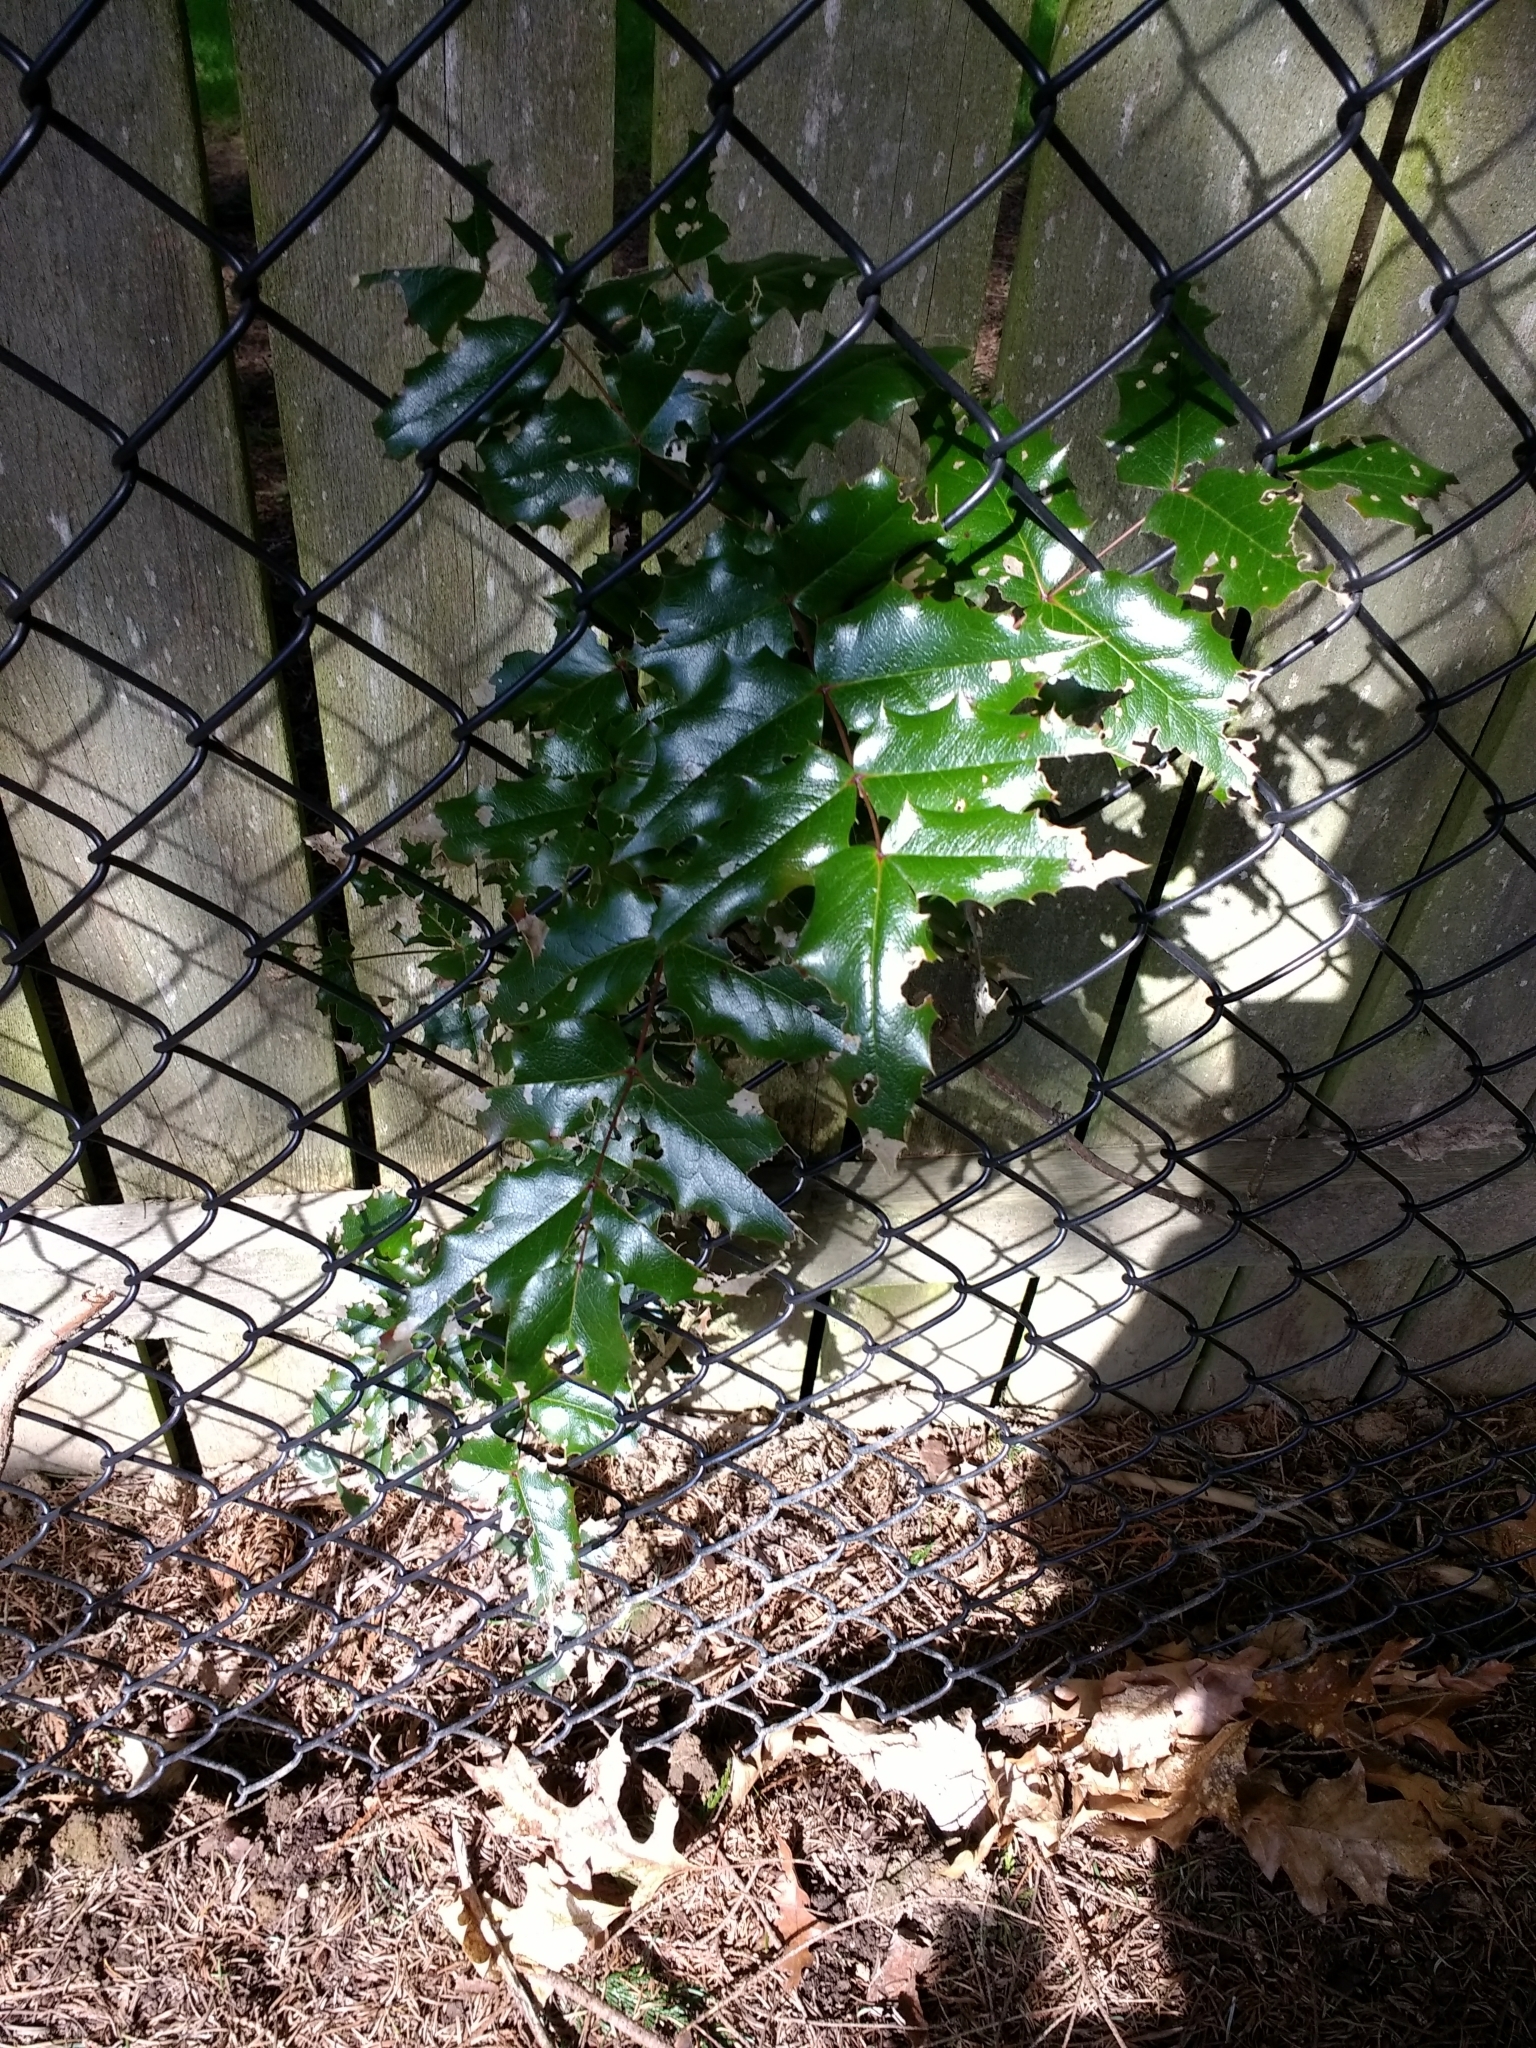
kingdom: Plantae
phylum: Tracheophyta
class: Magnoliopsida
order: Ranunculales
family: Berberidaceae
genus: Mahonia
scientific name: Mahonia aquifolium
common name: Oregon-grape
